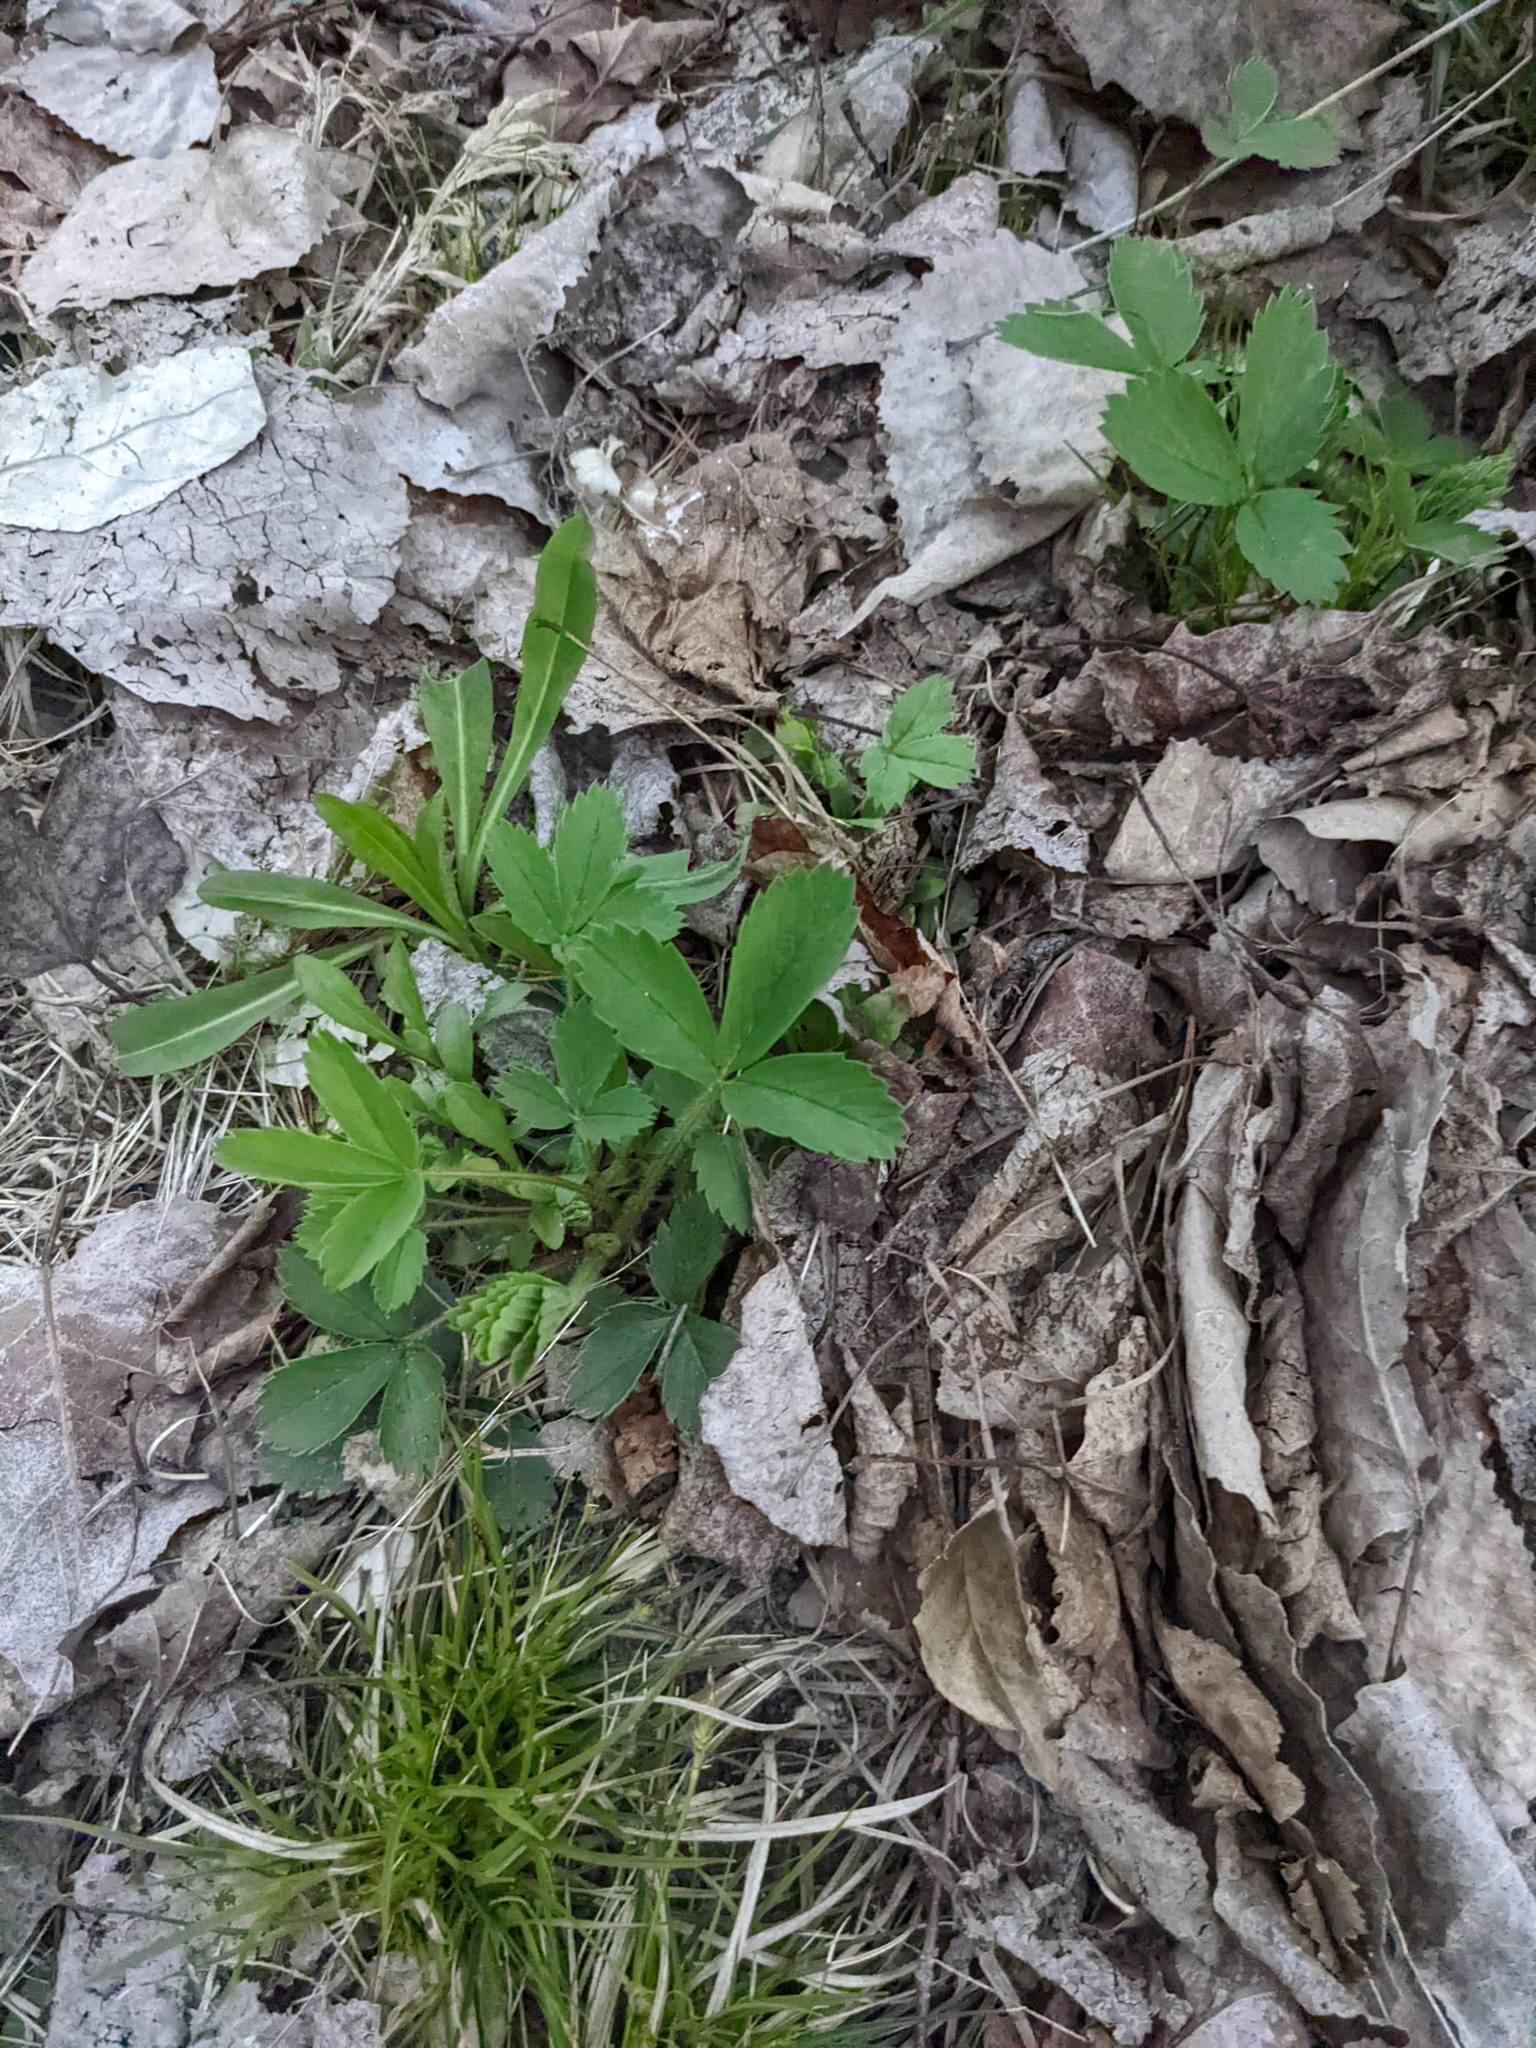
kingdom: Plantae
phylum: Tracheophyta
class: Magnoliopsida
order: Rosales
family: Rosaceae
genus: Fragaria
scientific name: Fragaria virginiana
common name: Thickleaved wild strawberry
